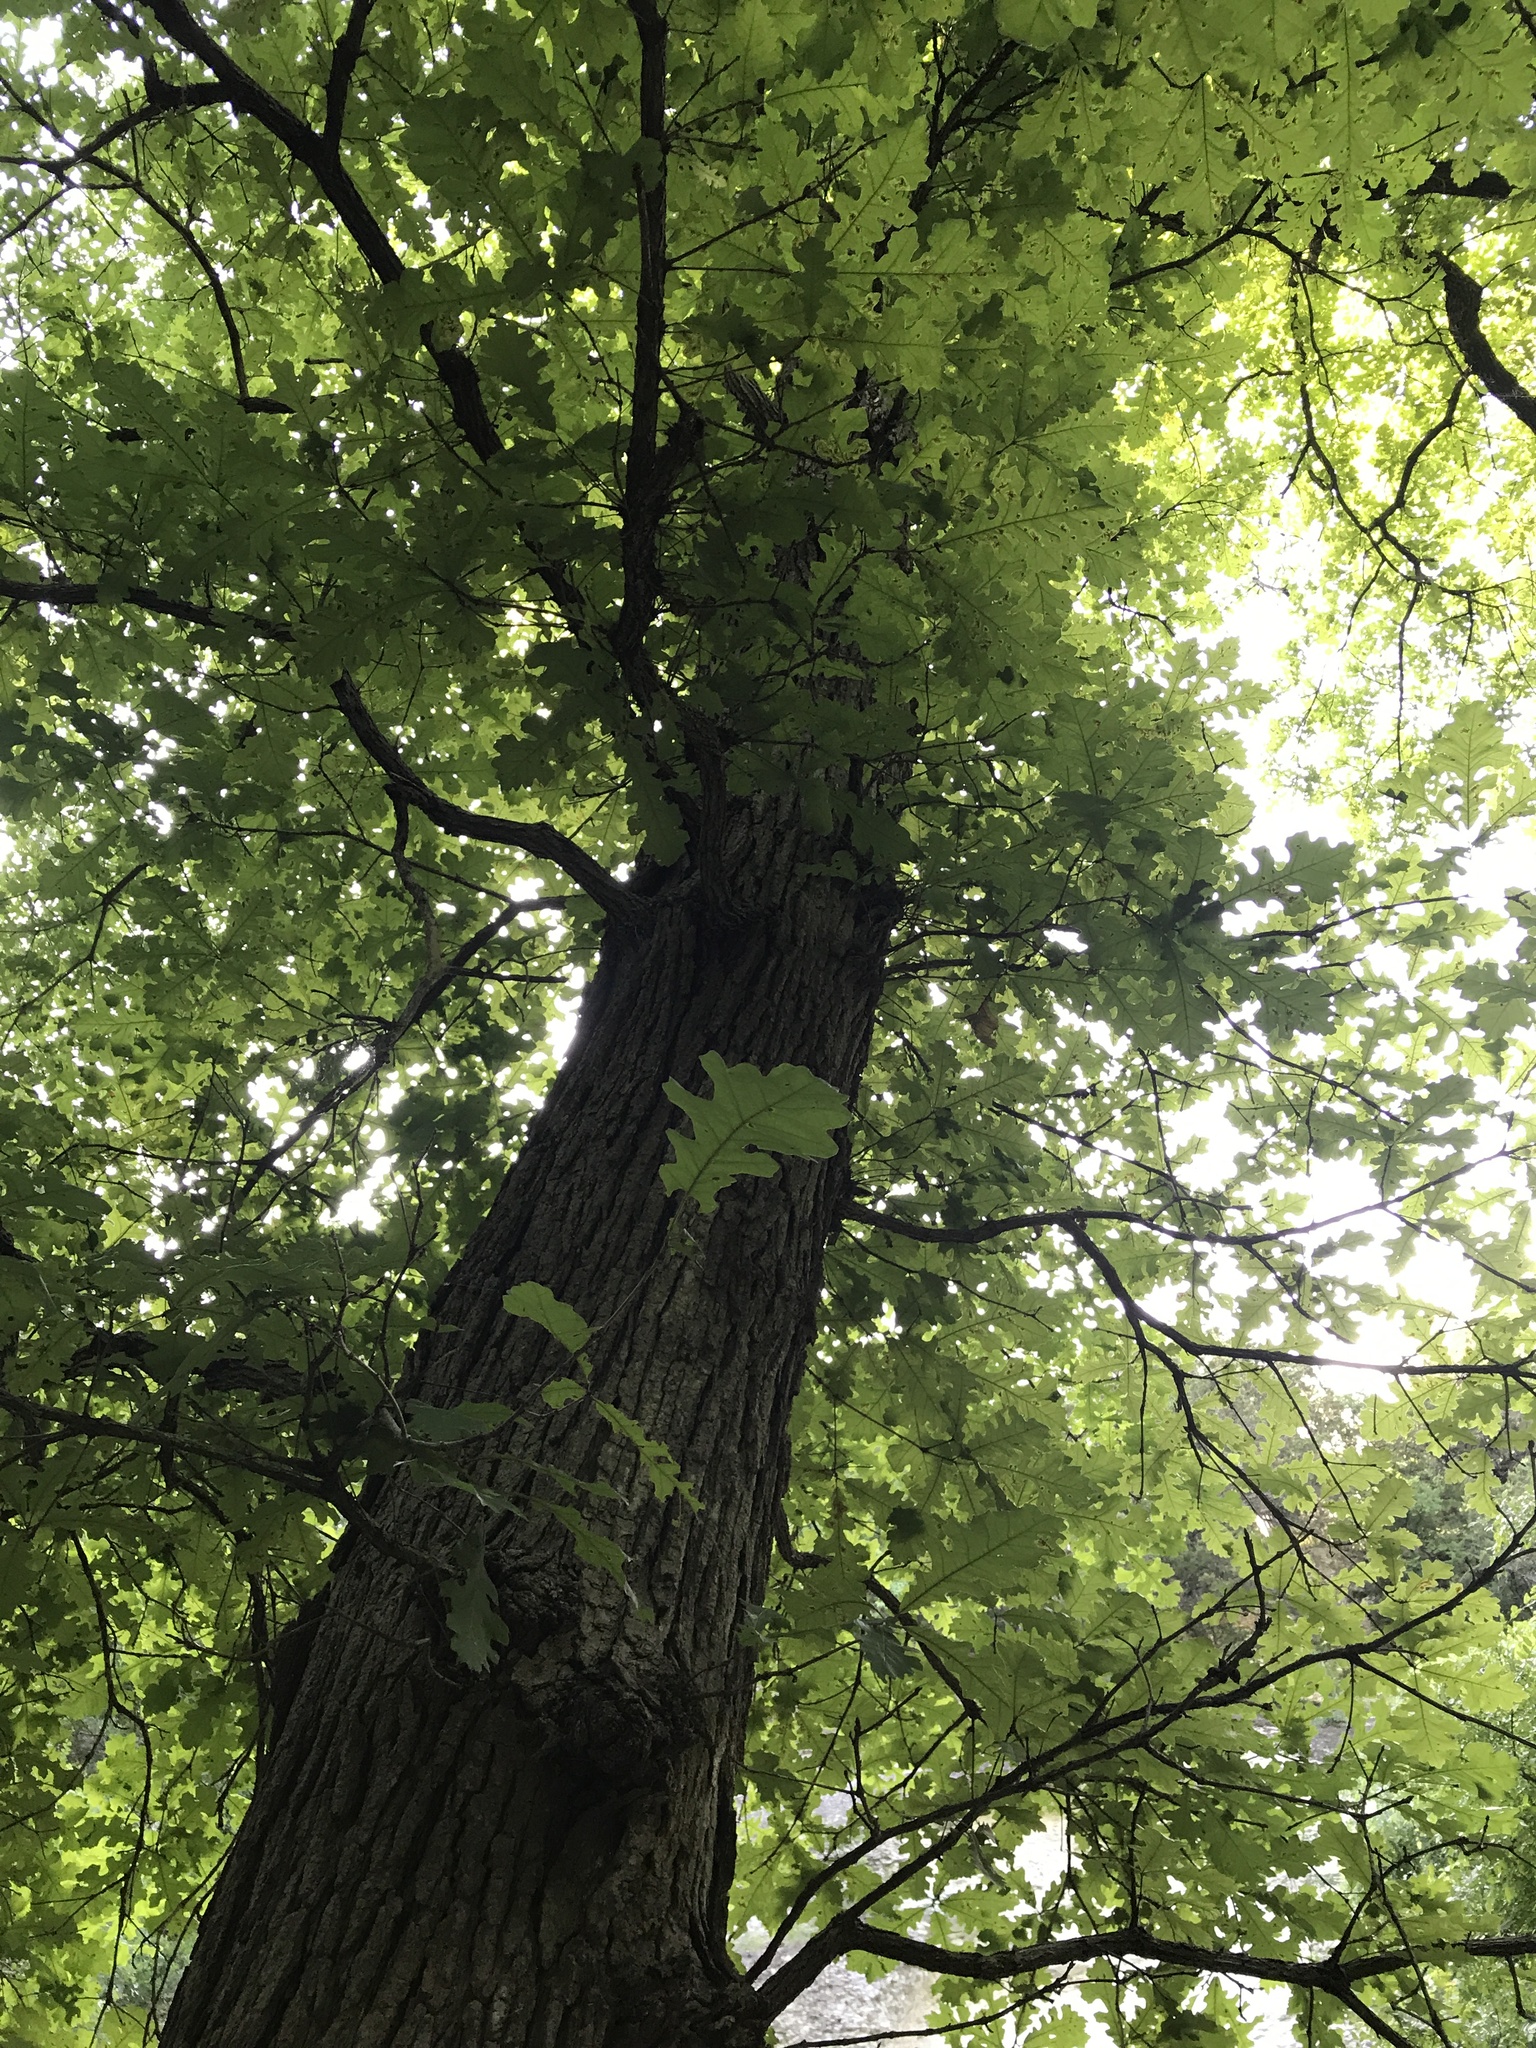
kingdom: Plantae
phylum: Tracheophyta
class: Magnoliopsida
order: Fagales
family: Fagaceae
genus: Quercus
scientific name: Quercus macrocarpa
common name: Bur oak
